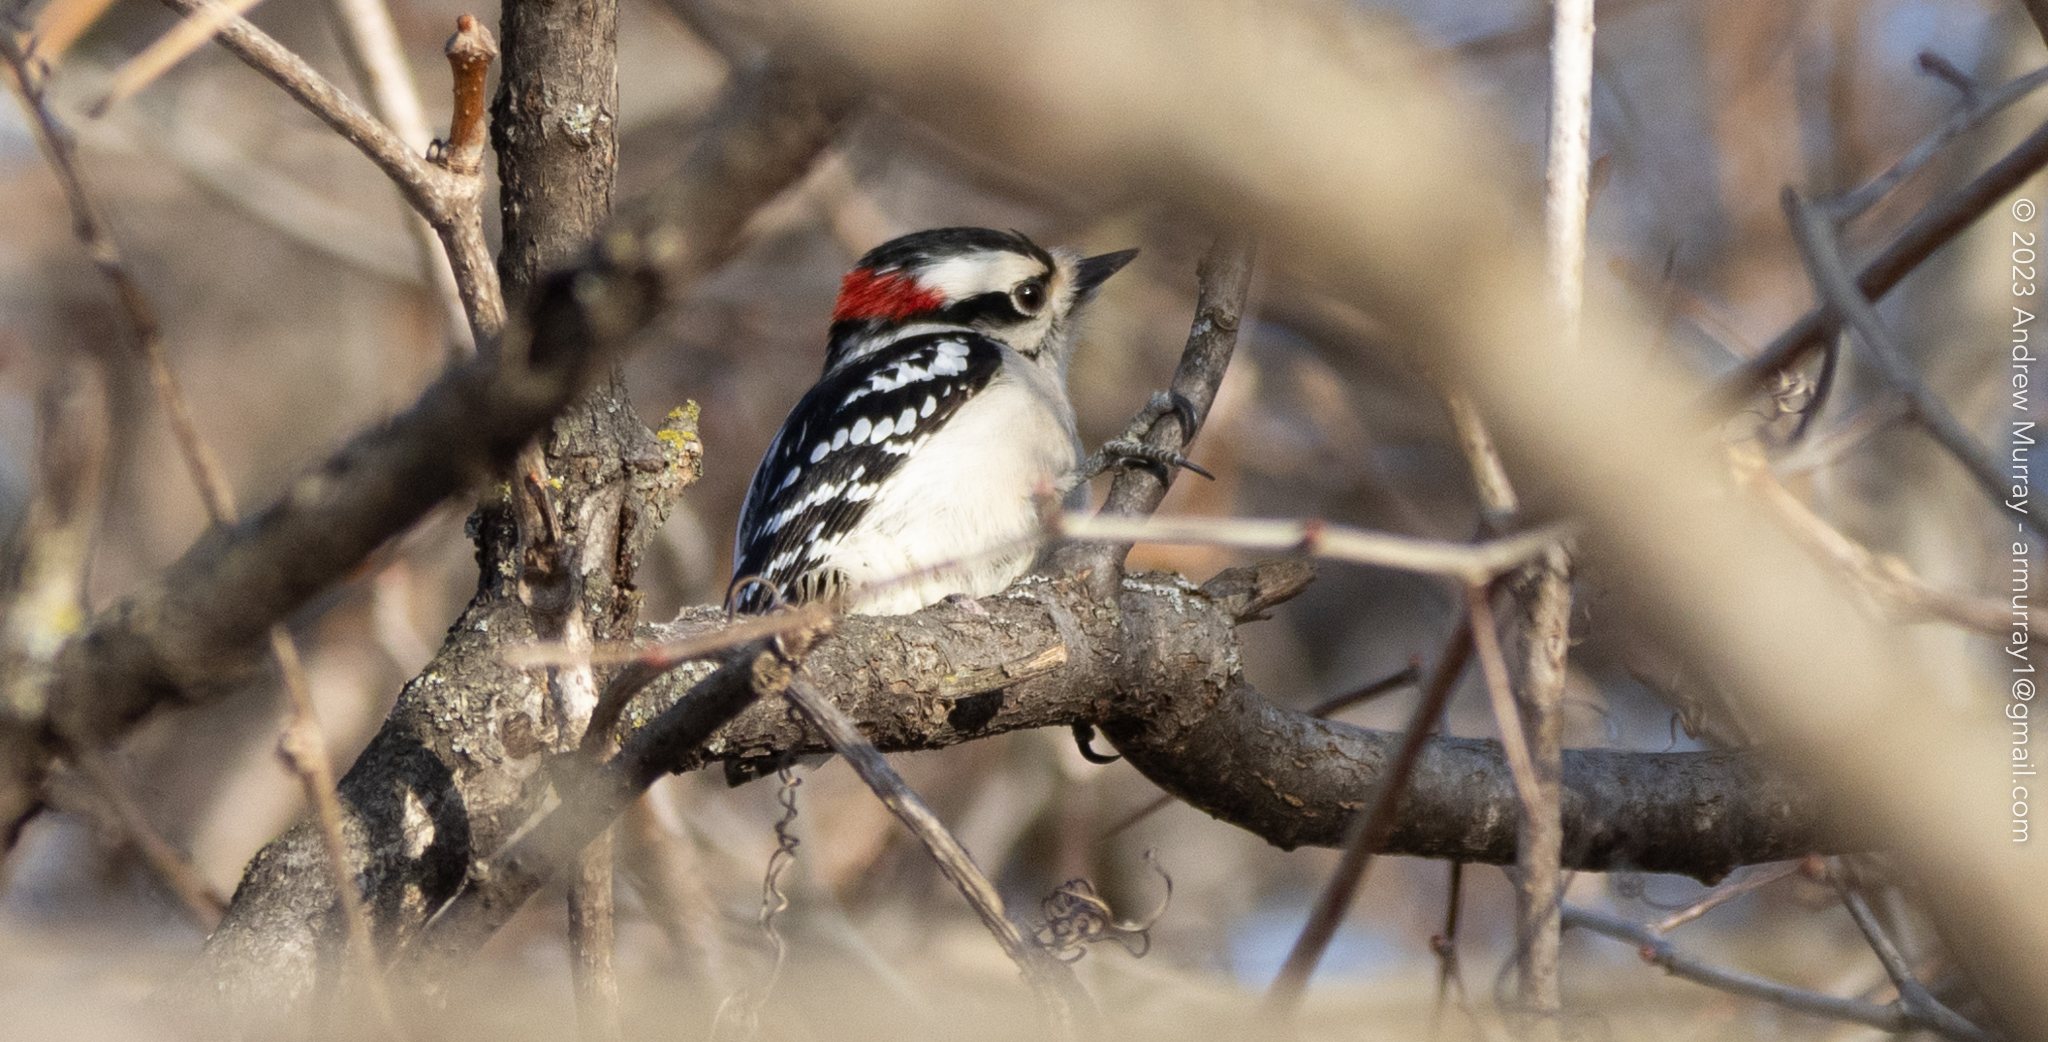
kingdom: Animalia
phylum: Chordata
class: Aves
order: Piciformes
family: Picidae
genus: Dryobates
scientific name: Dryobates pubescens
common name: Downy woodpecker
